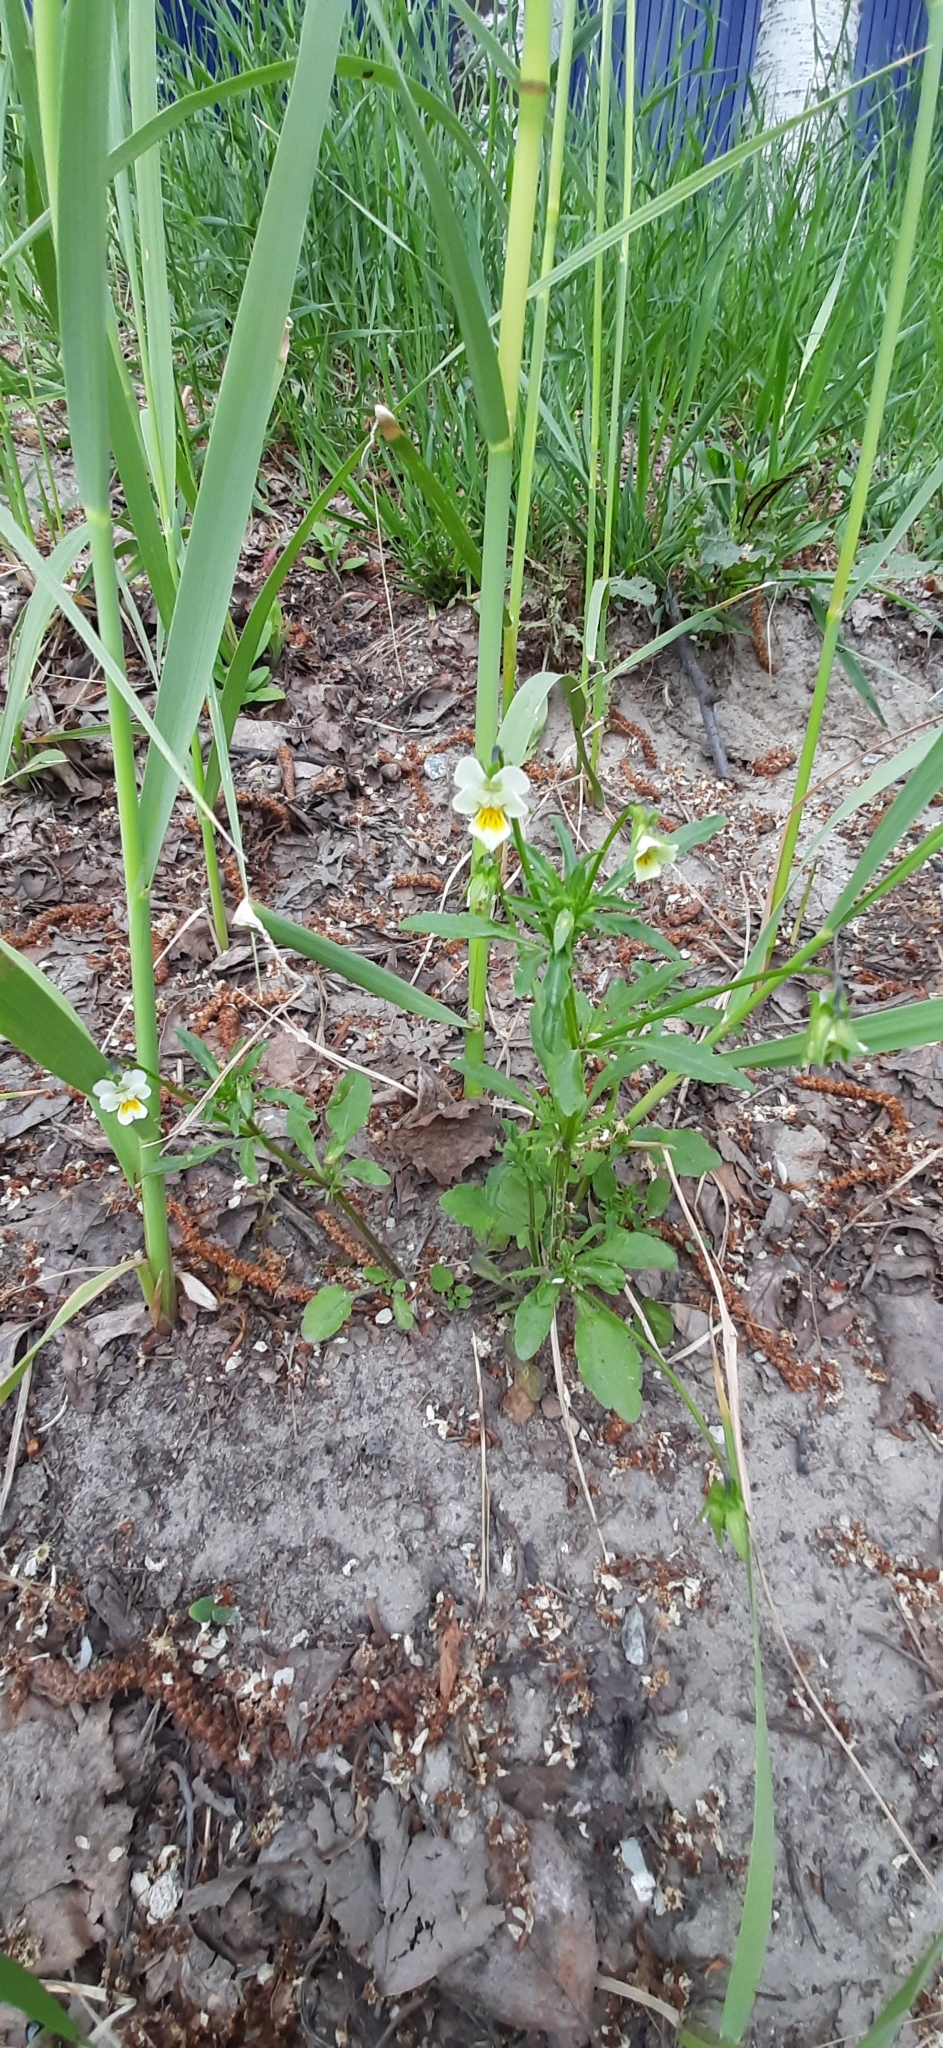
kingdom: Plantae
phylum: Tracheophyta
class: Magnoliopsida
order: Malpighiales
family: Violaceae
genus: Viola
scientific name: Viola arvensis
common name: Field pansy
